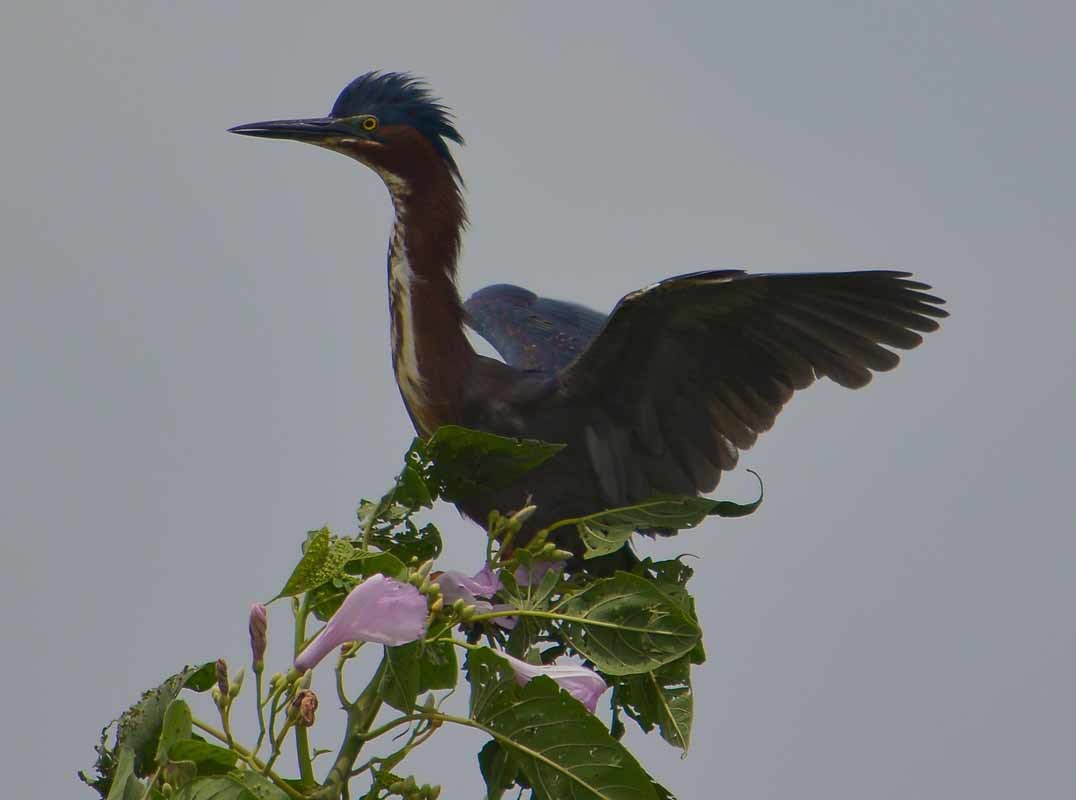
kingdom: Animalia
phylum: Chordata
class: Aves
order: Pelecaniformes
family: Ardeidae
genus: Butorides
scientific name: Butorides virescens
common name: Green heron
